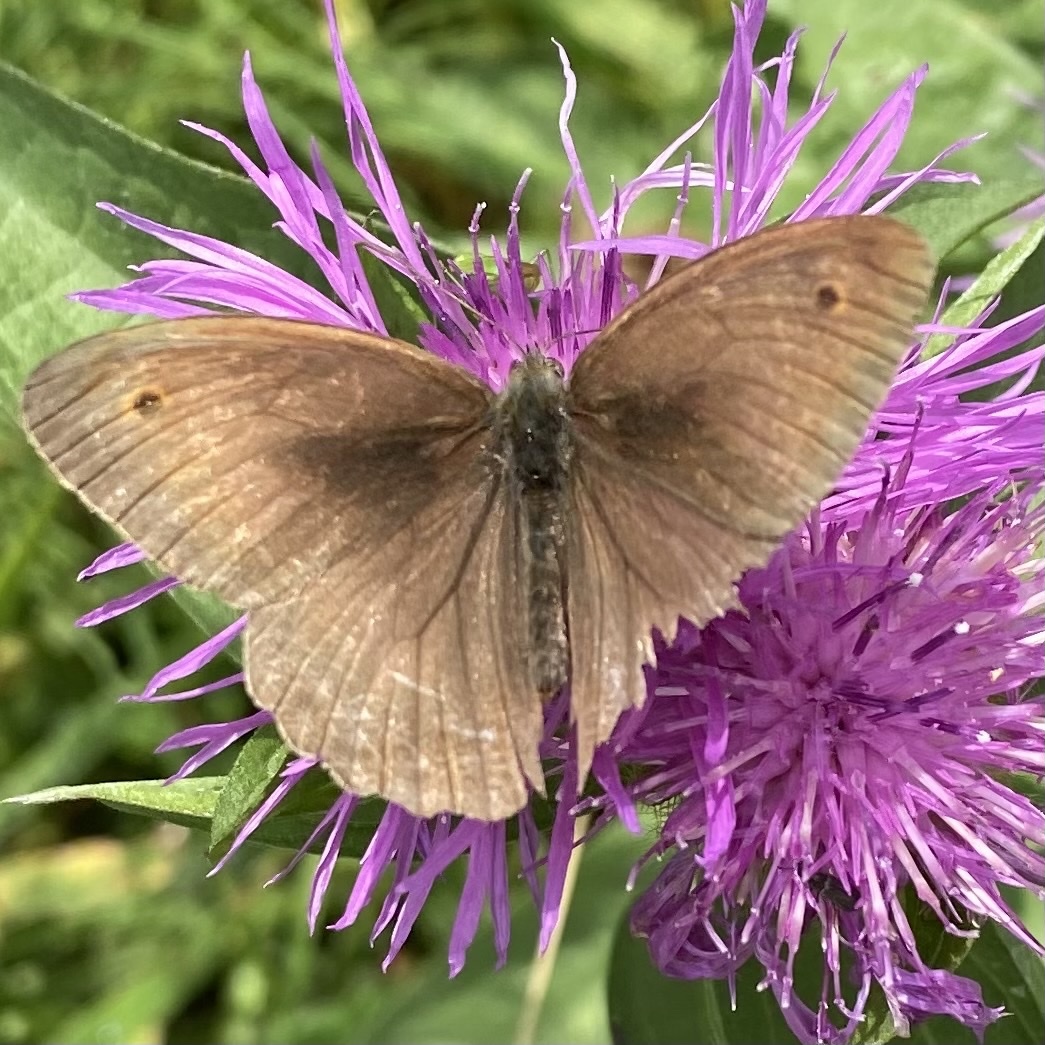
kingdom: Animalia
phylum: Arthropoda
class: Insecta
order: Lepidoptera
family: Nymphalidae
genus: Maniola
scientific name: Maniola jurtina
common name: Meadow brown
